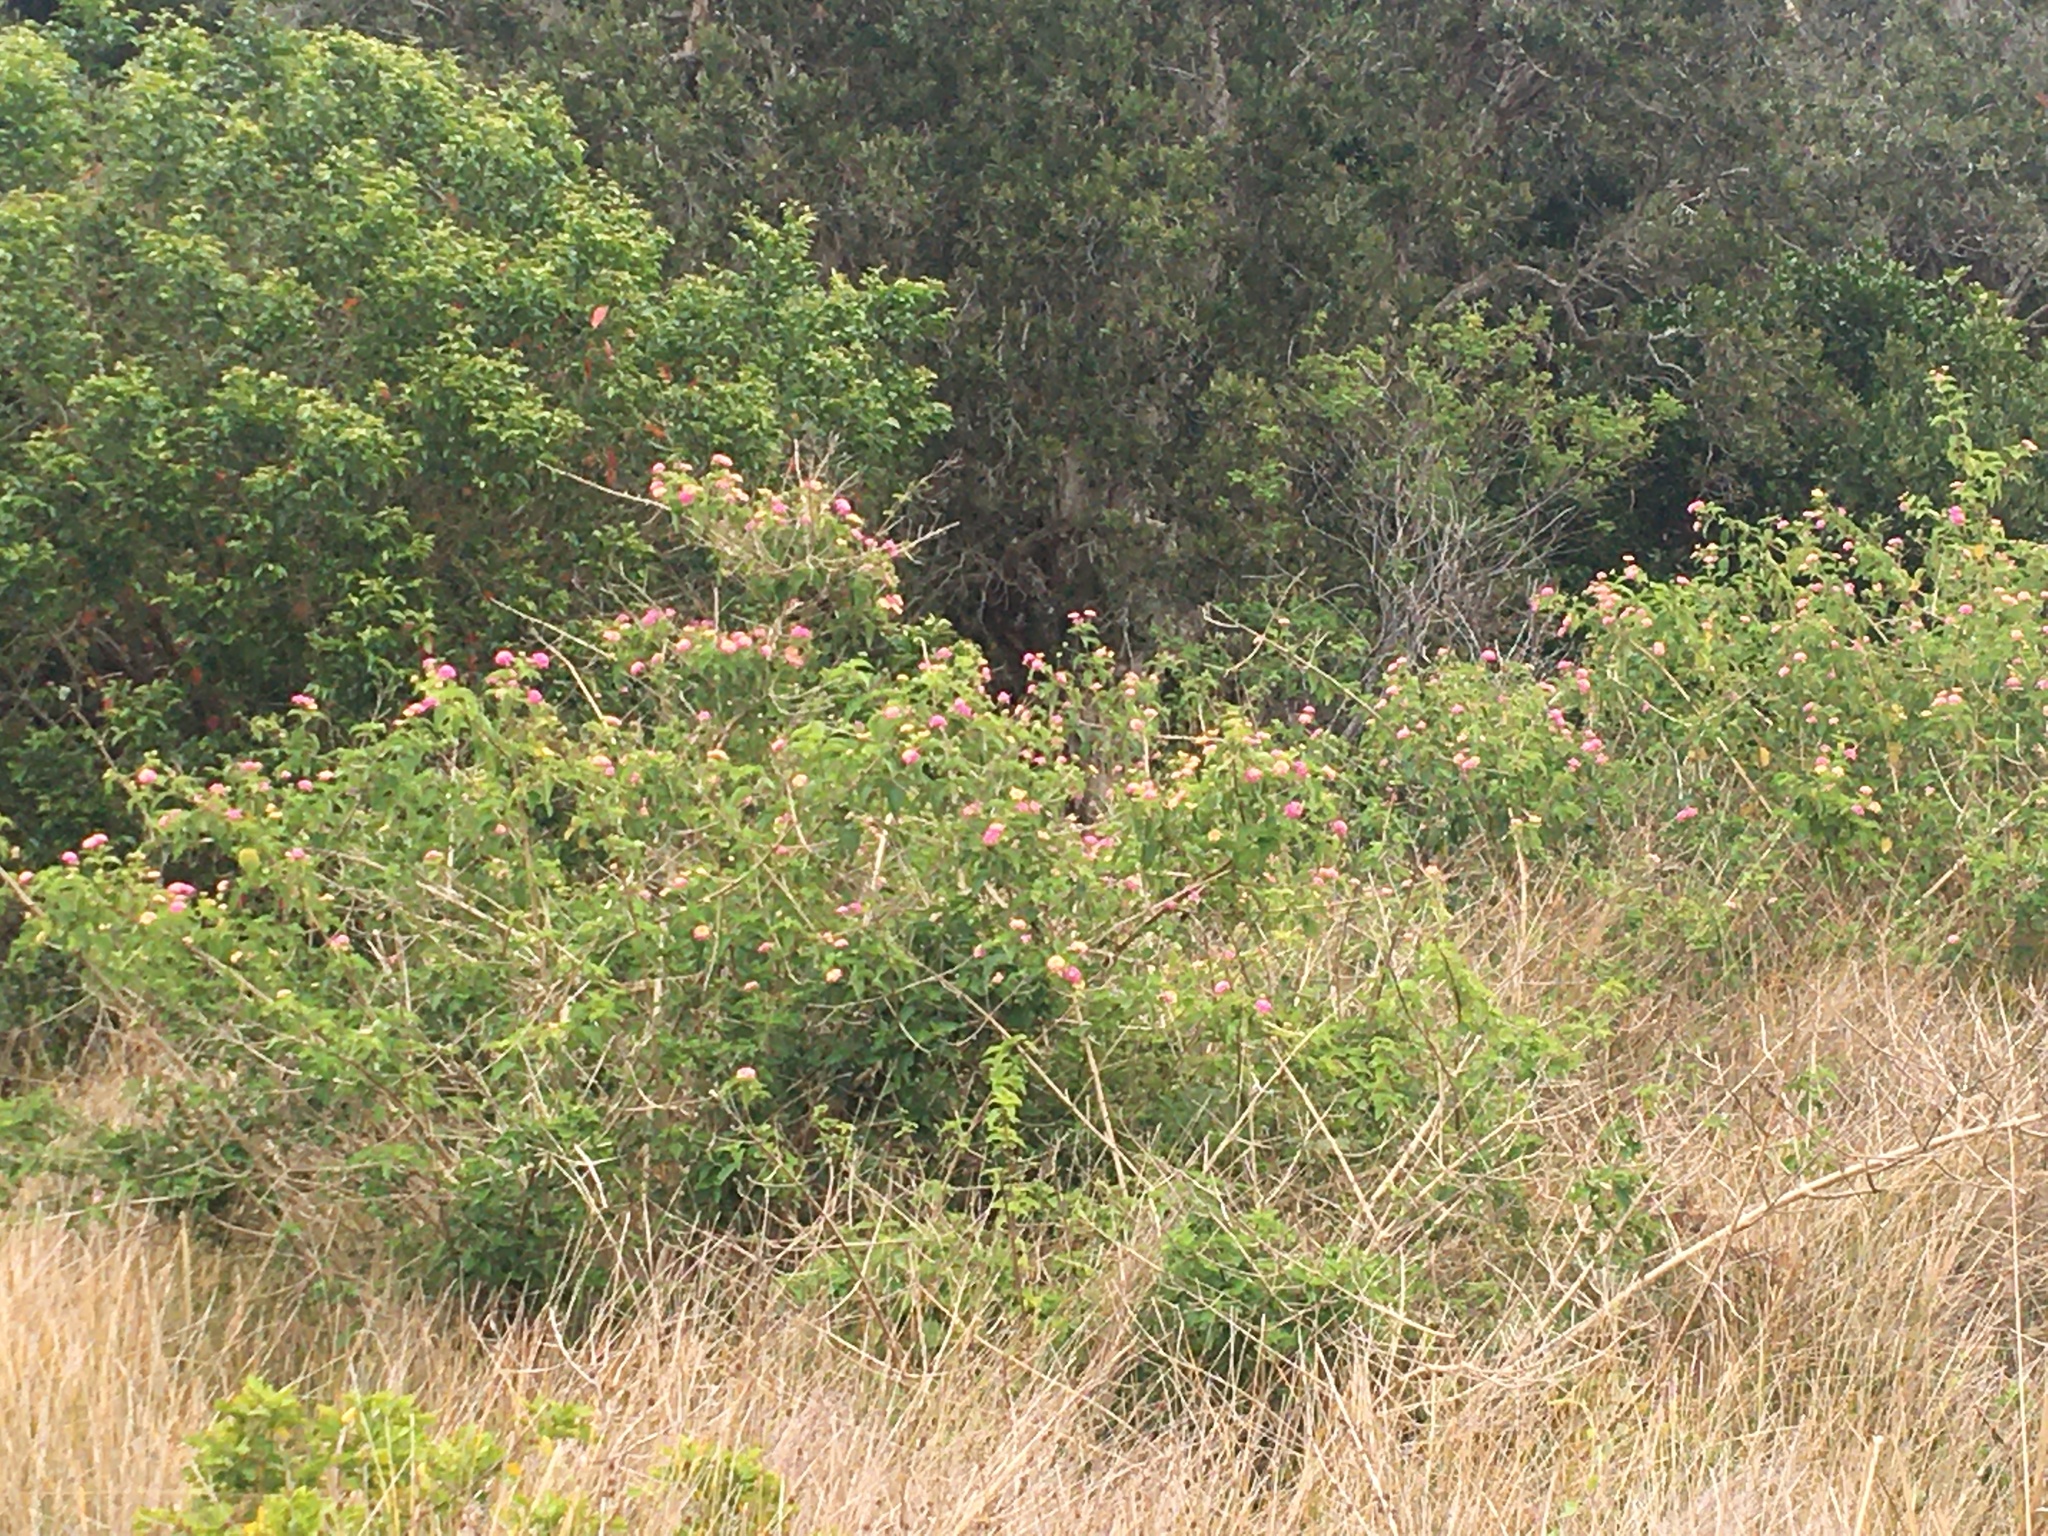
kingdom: Plantae
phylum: Tracheophyta
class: Magnoliopsida
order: Lamiales
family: Verbenaceae
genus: Lantana
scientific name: Lantana camara
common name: Lantana
